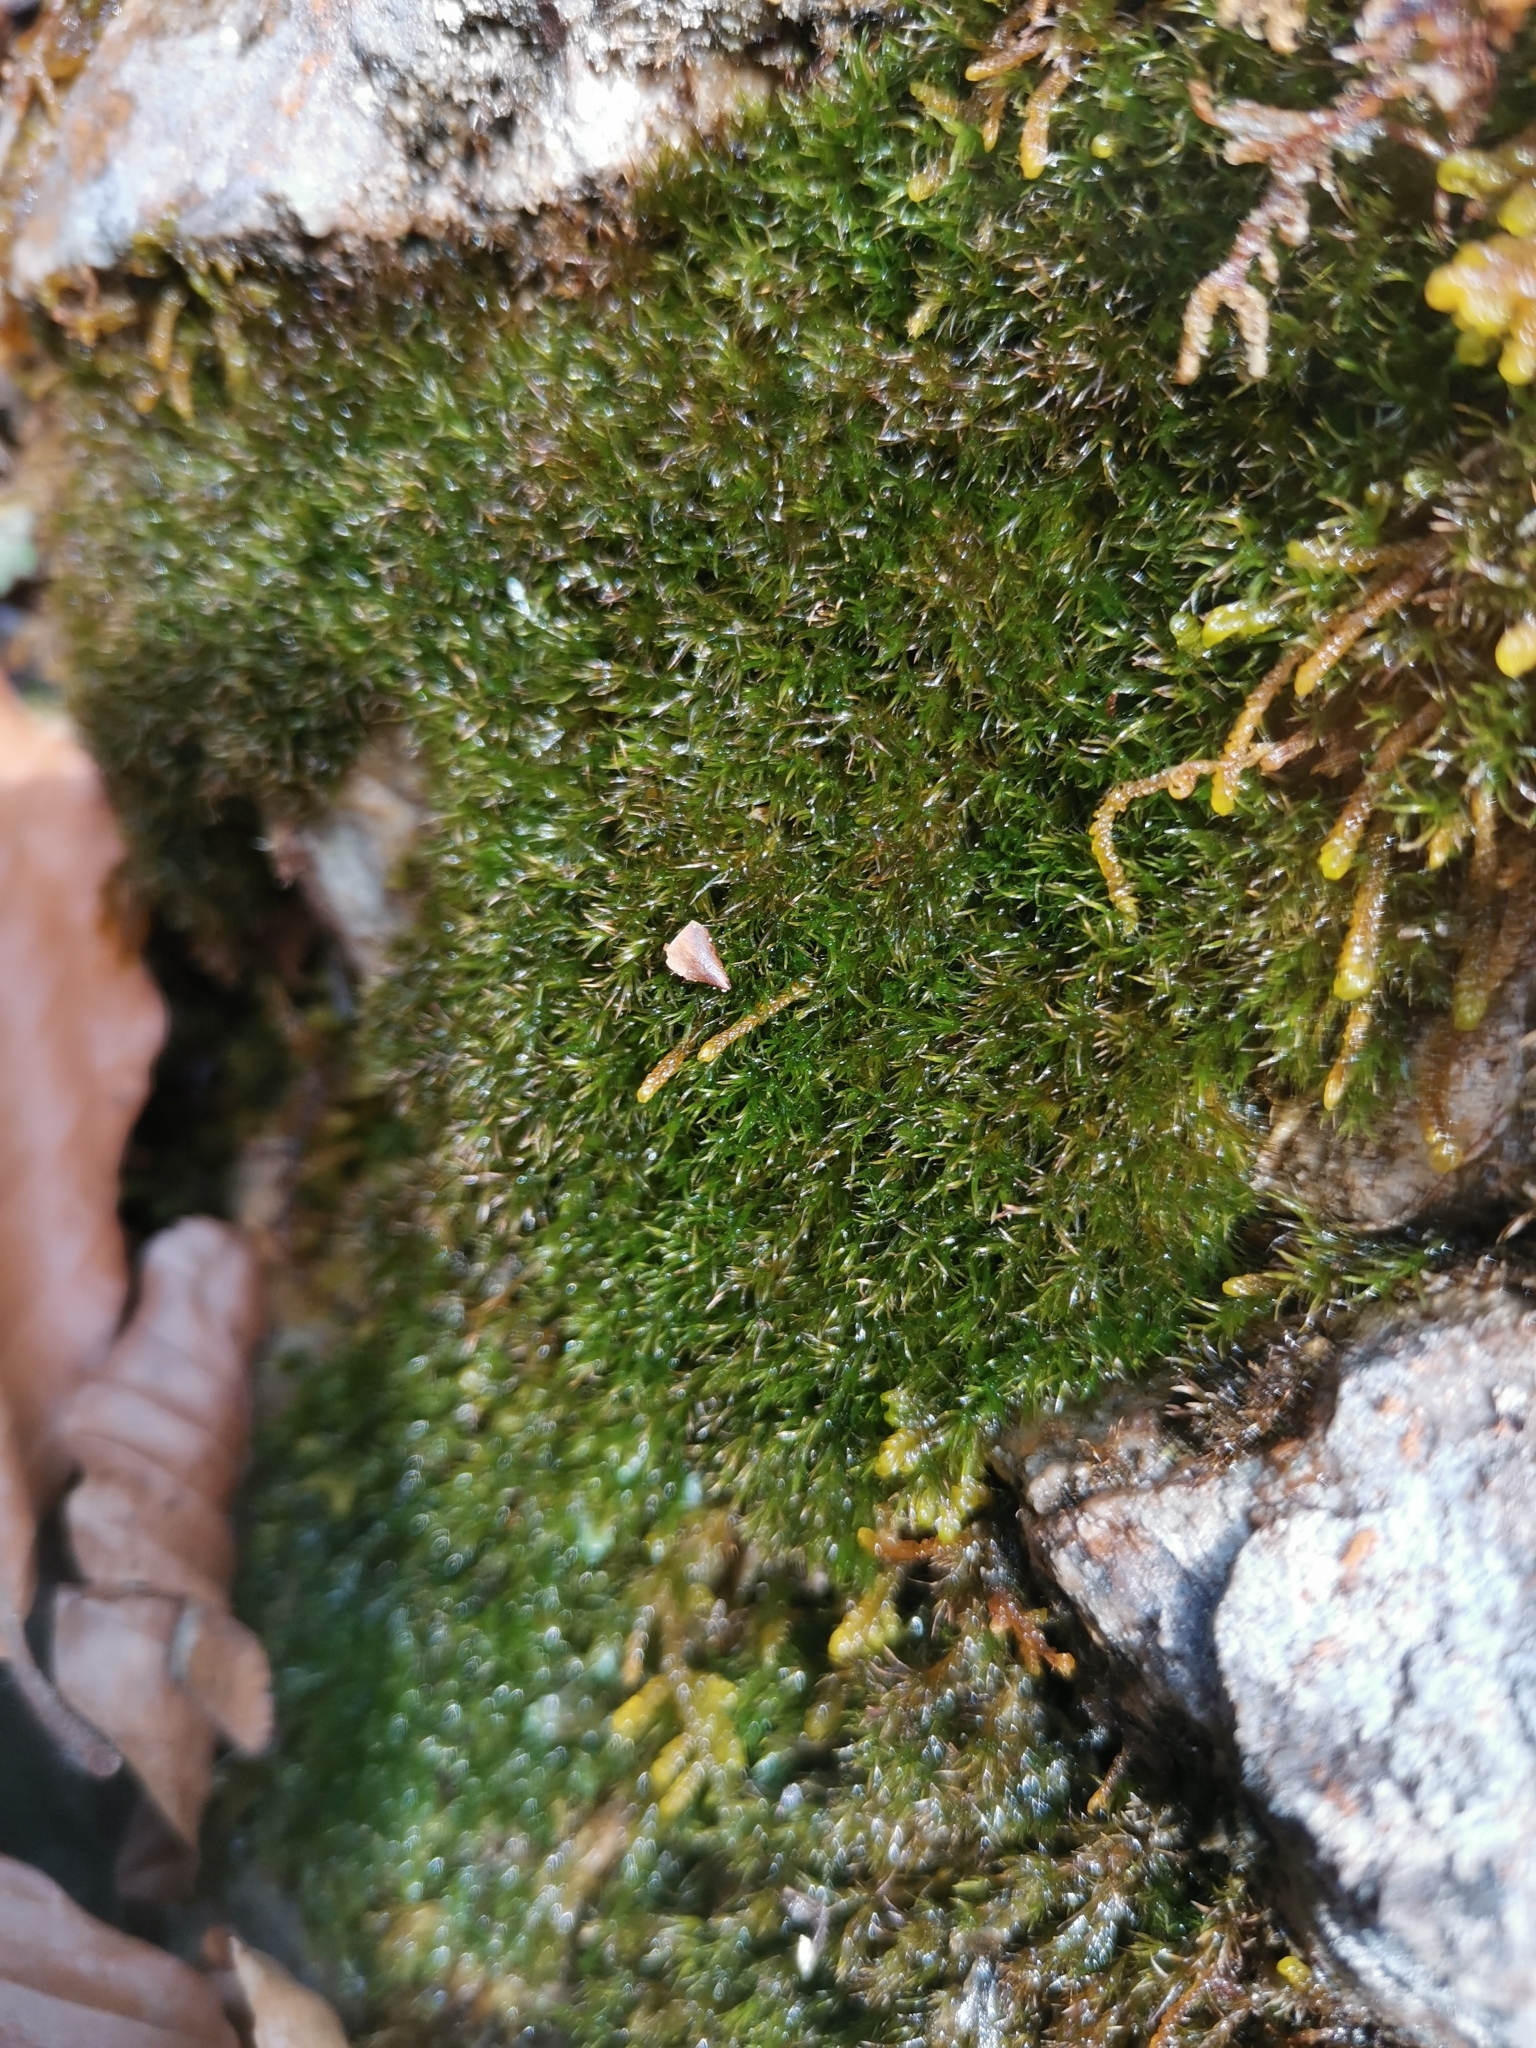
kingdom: Plantae
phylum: Bryophyta
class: Bryopsida
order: Pottiales
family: Pottiaceae
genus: Eucladium
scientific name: Eucladium verticillatum
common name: Whorled tufa-moss
